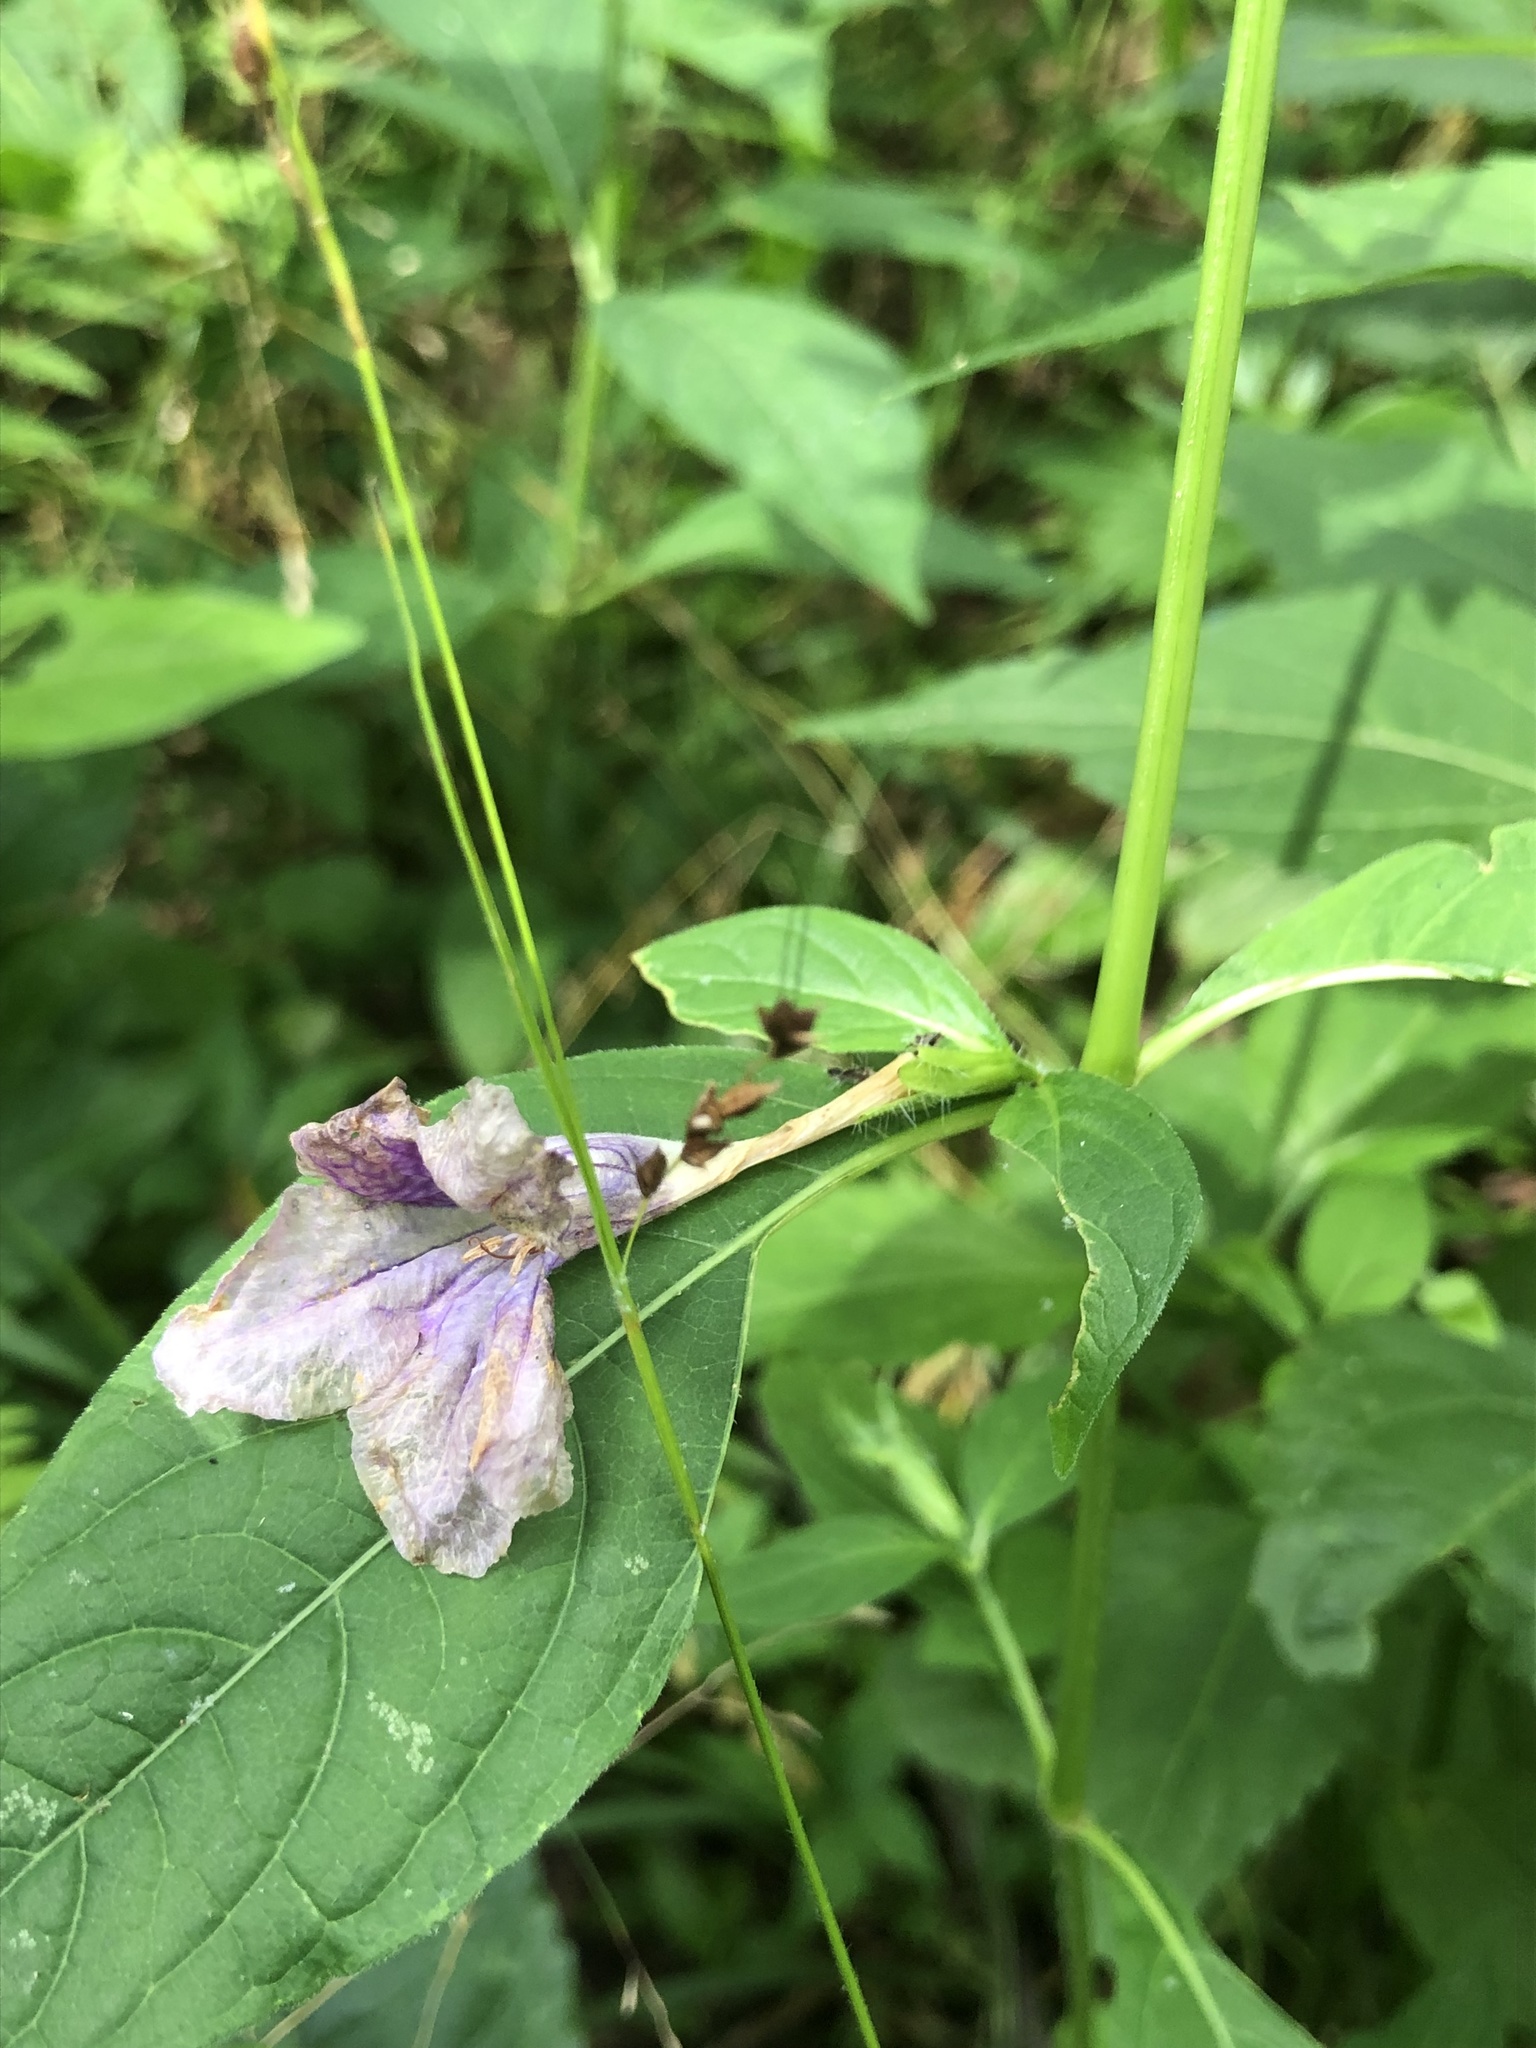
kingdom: Plantae
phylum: Tracheophyta
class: Magnoliopsida
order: Lamiales
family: Acanthaceae
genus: Ruellia
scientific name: Ruellia strepens
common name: Limestone wild petunia
